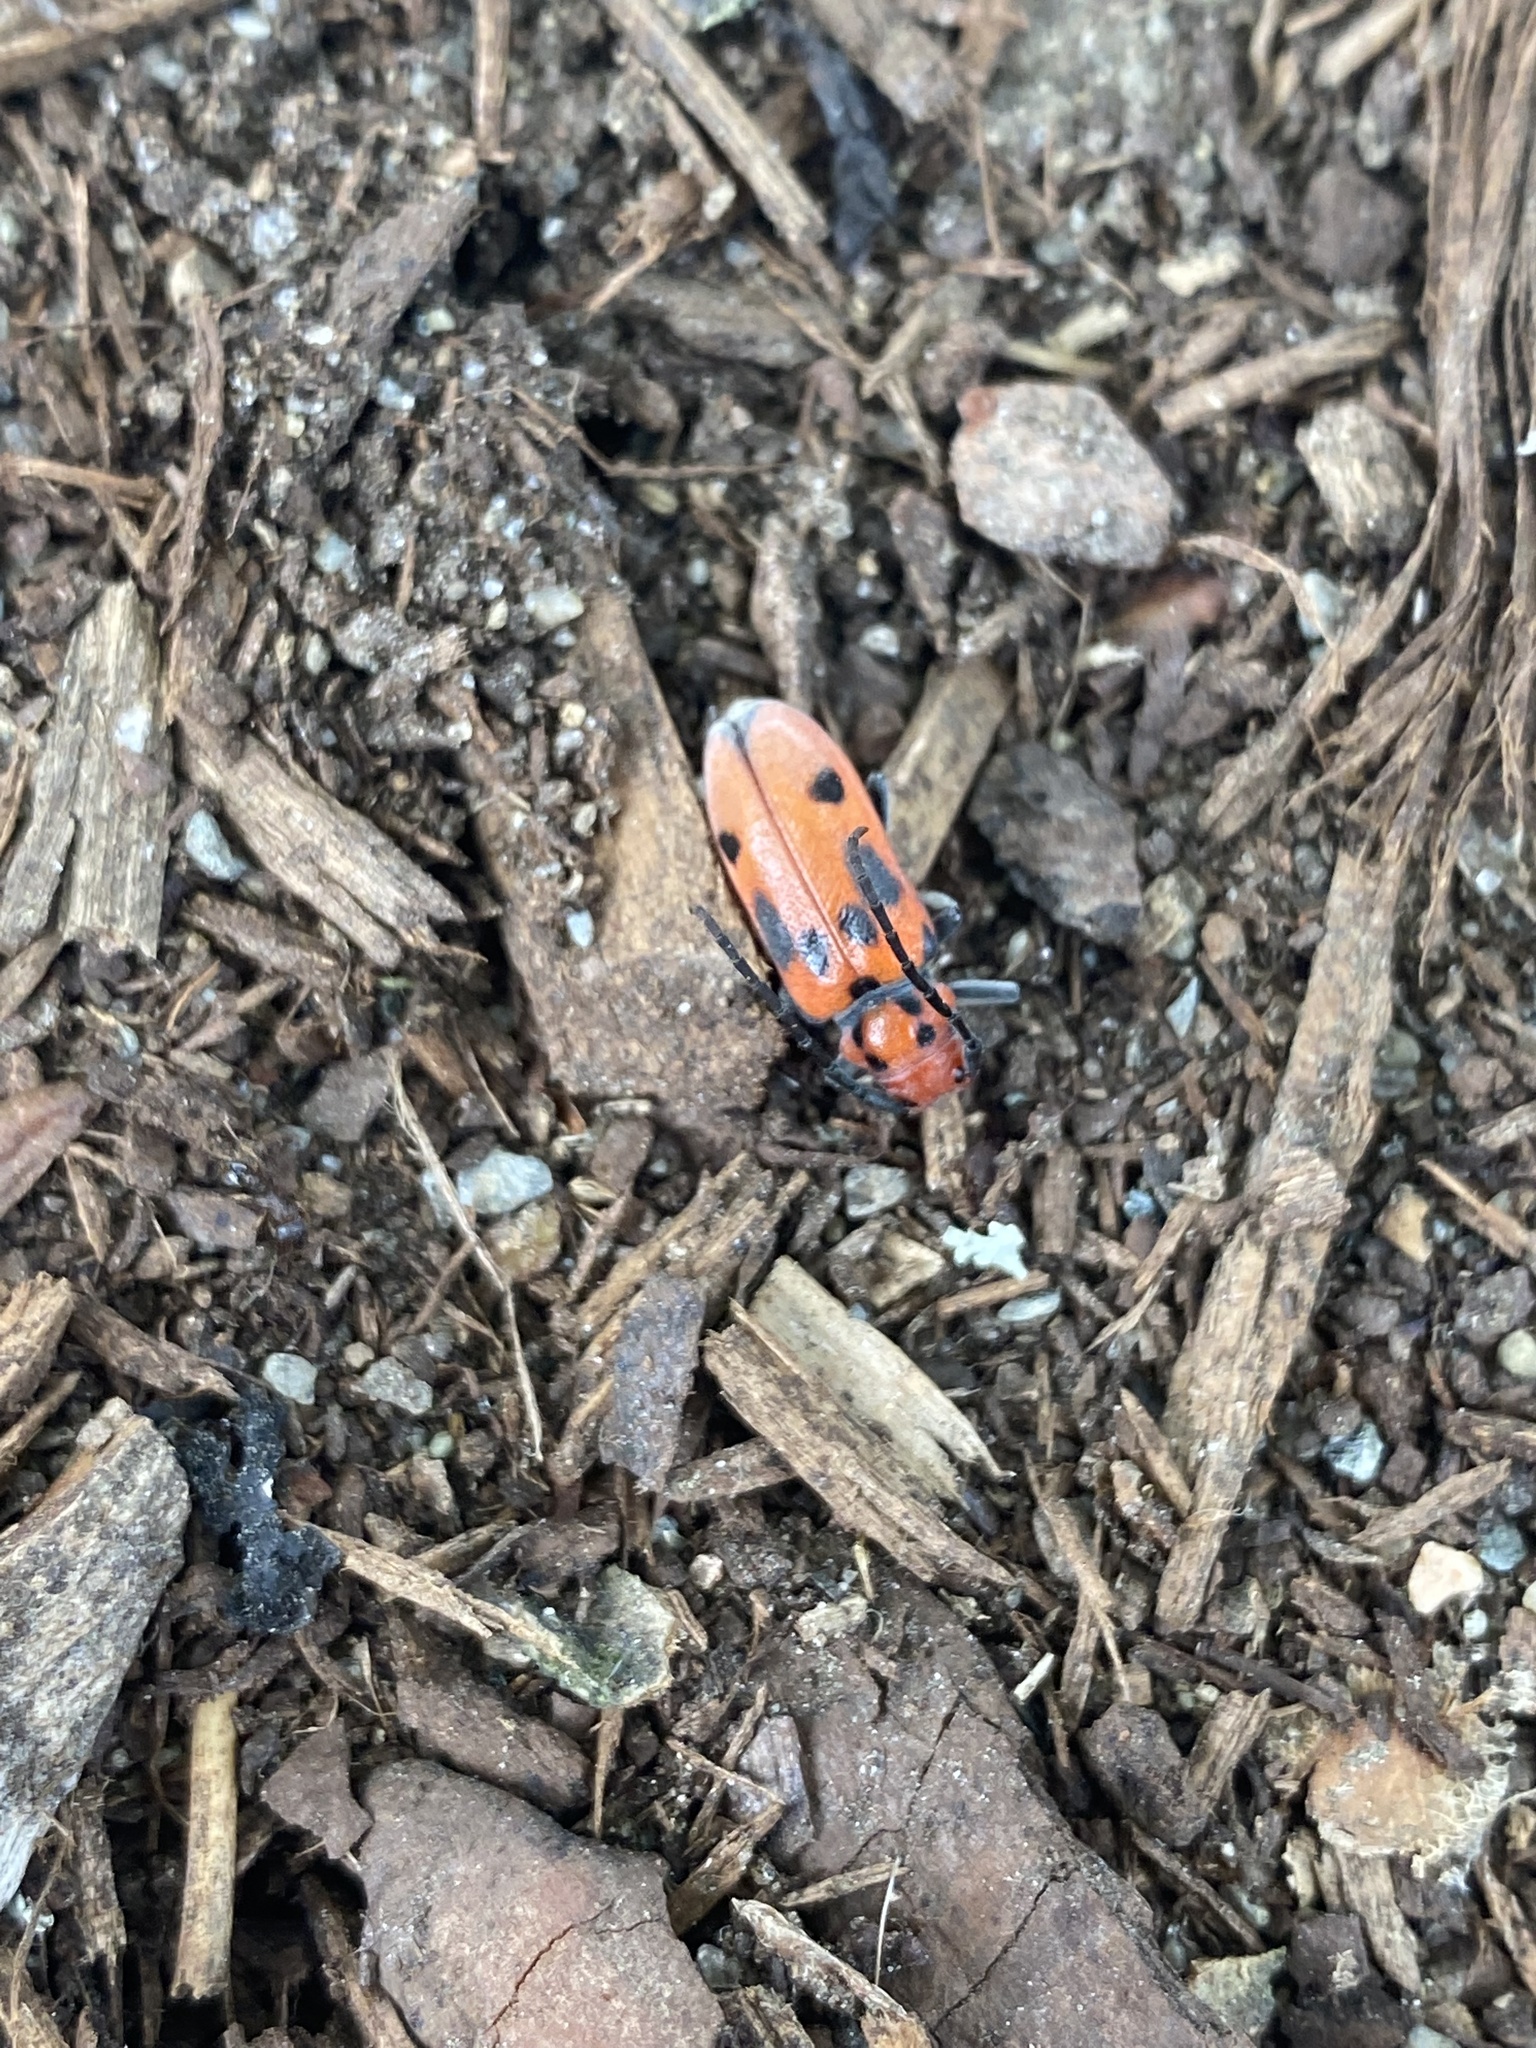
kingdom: Animalia
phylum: Arthropoda
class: Insecta
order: Coleoptera
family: Cerambycidae
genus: Tetraopes
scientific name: Tetraopes tetrophthalmus
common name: Red milkweed beetle
